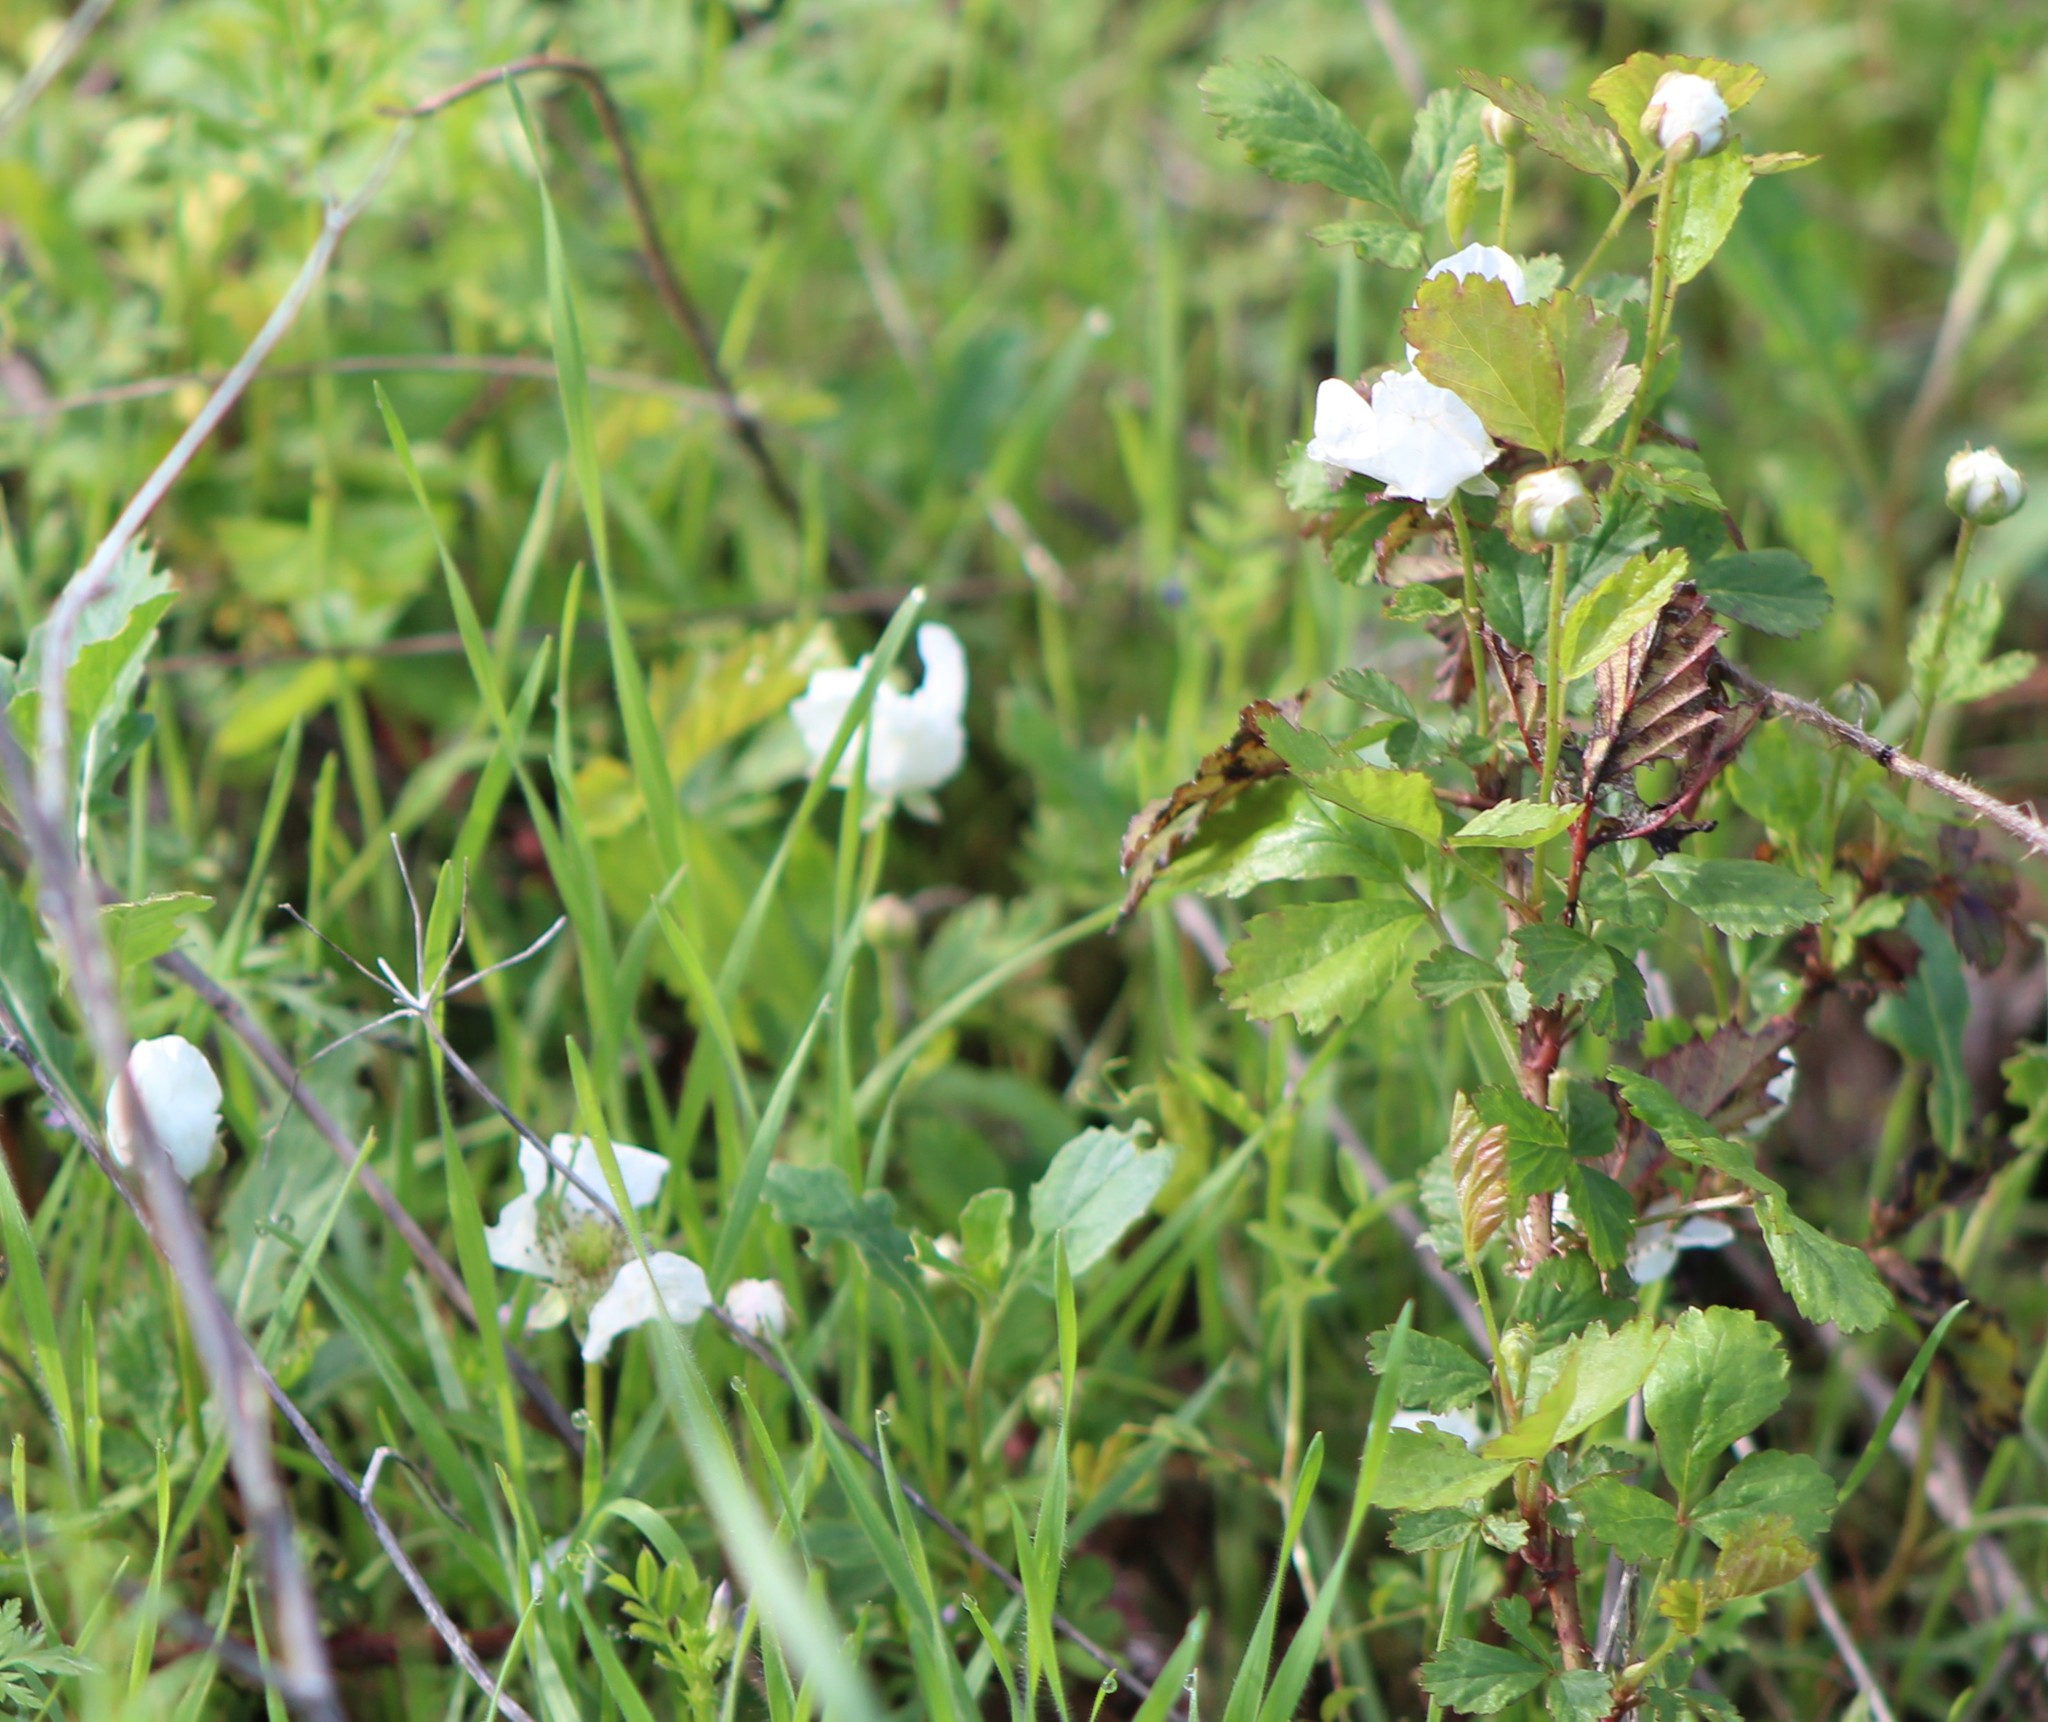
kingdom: Plantae
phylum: Tracheophyta
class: Magnoliopsida
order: Rosales
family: Rosaceae
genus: Rubus
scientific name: Rubus trivialis
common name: Southern dewberry
